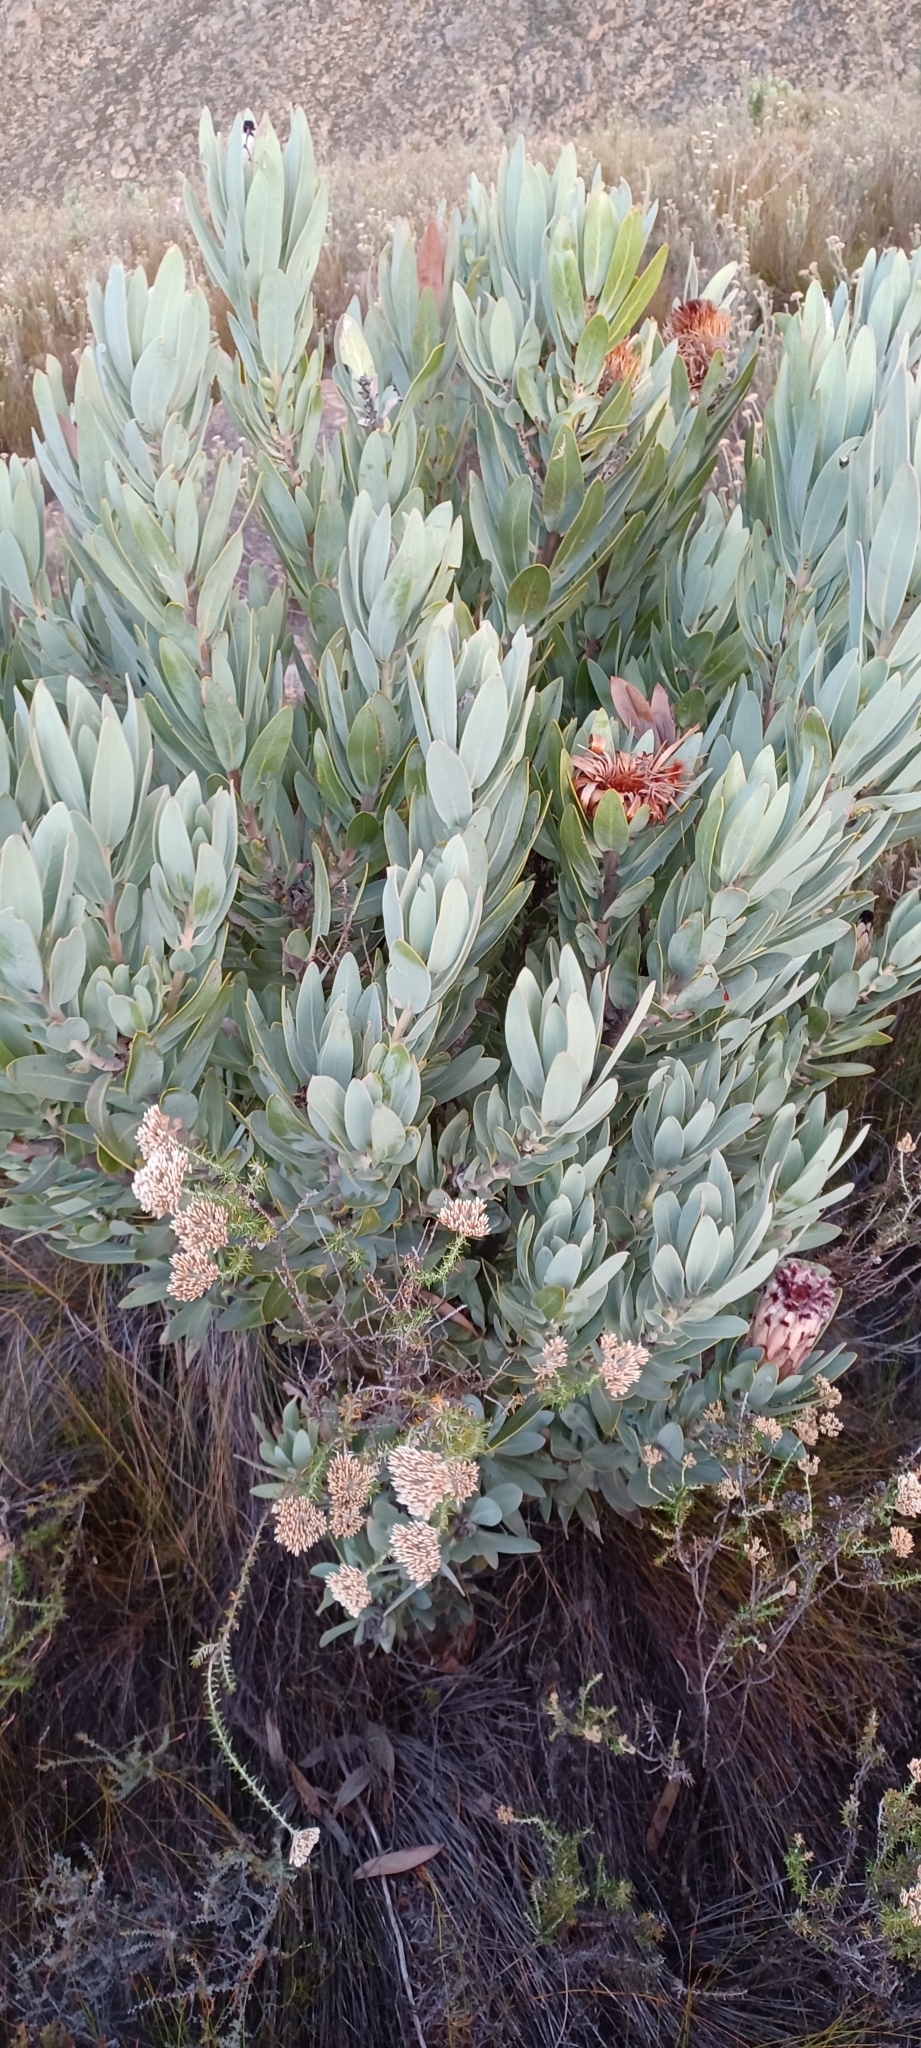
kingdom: Plantae
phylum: Tracheophyta
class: Magnoliopsida
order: Proteales
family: Proteaceae
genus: Protea
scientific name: Protea laurifolia
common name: Grey-leaf sugarbsh
